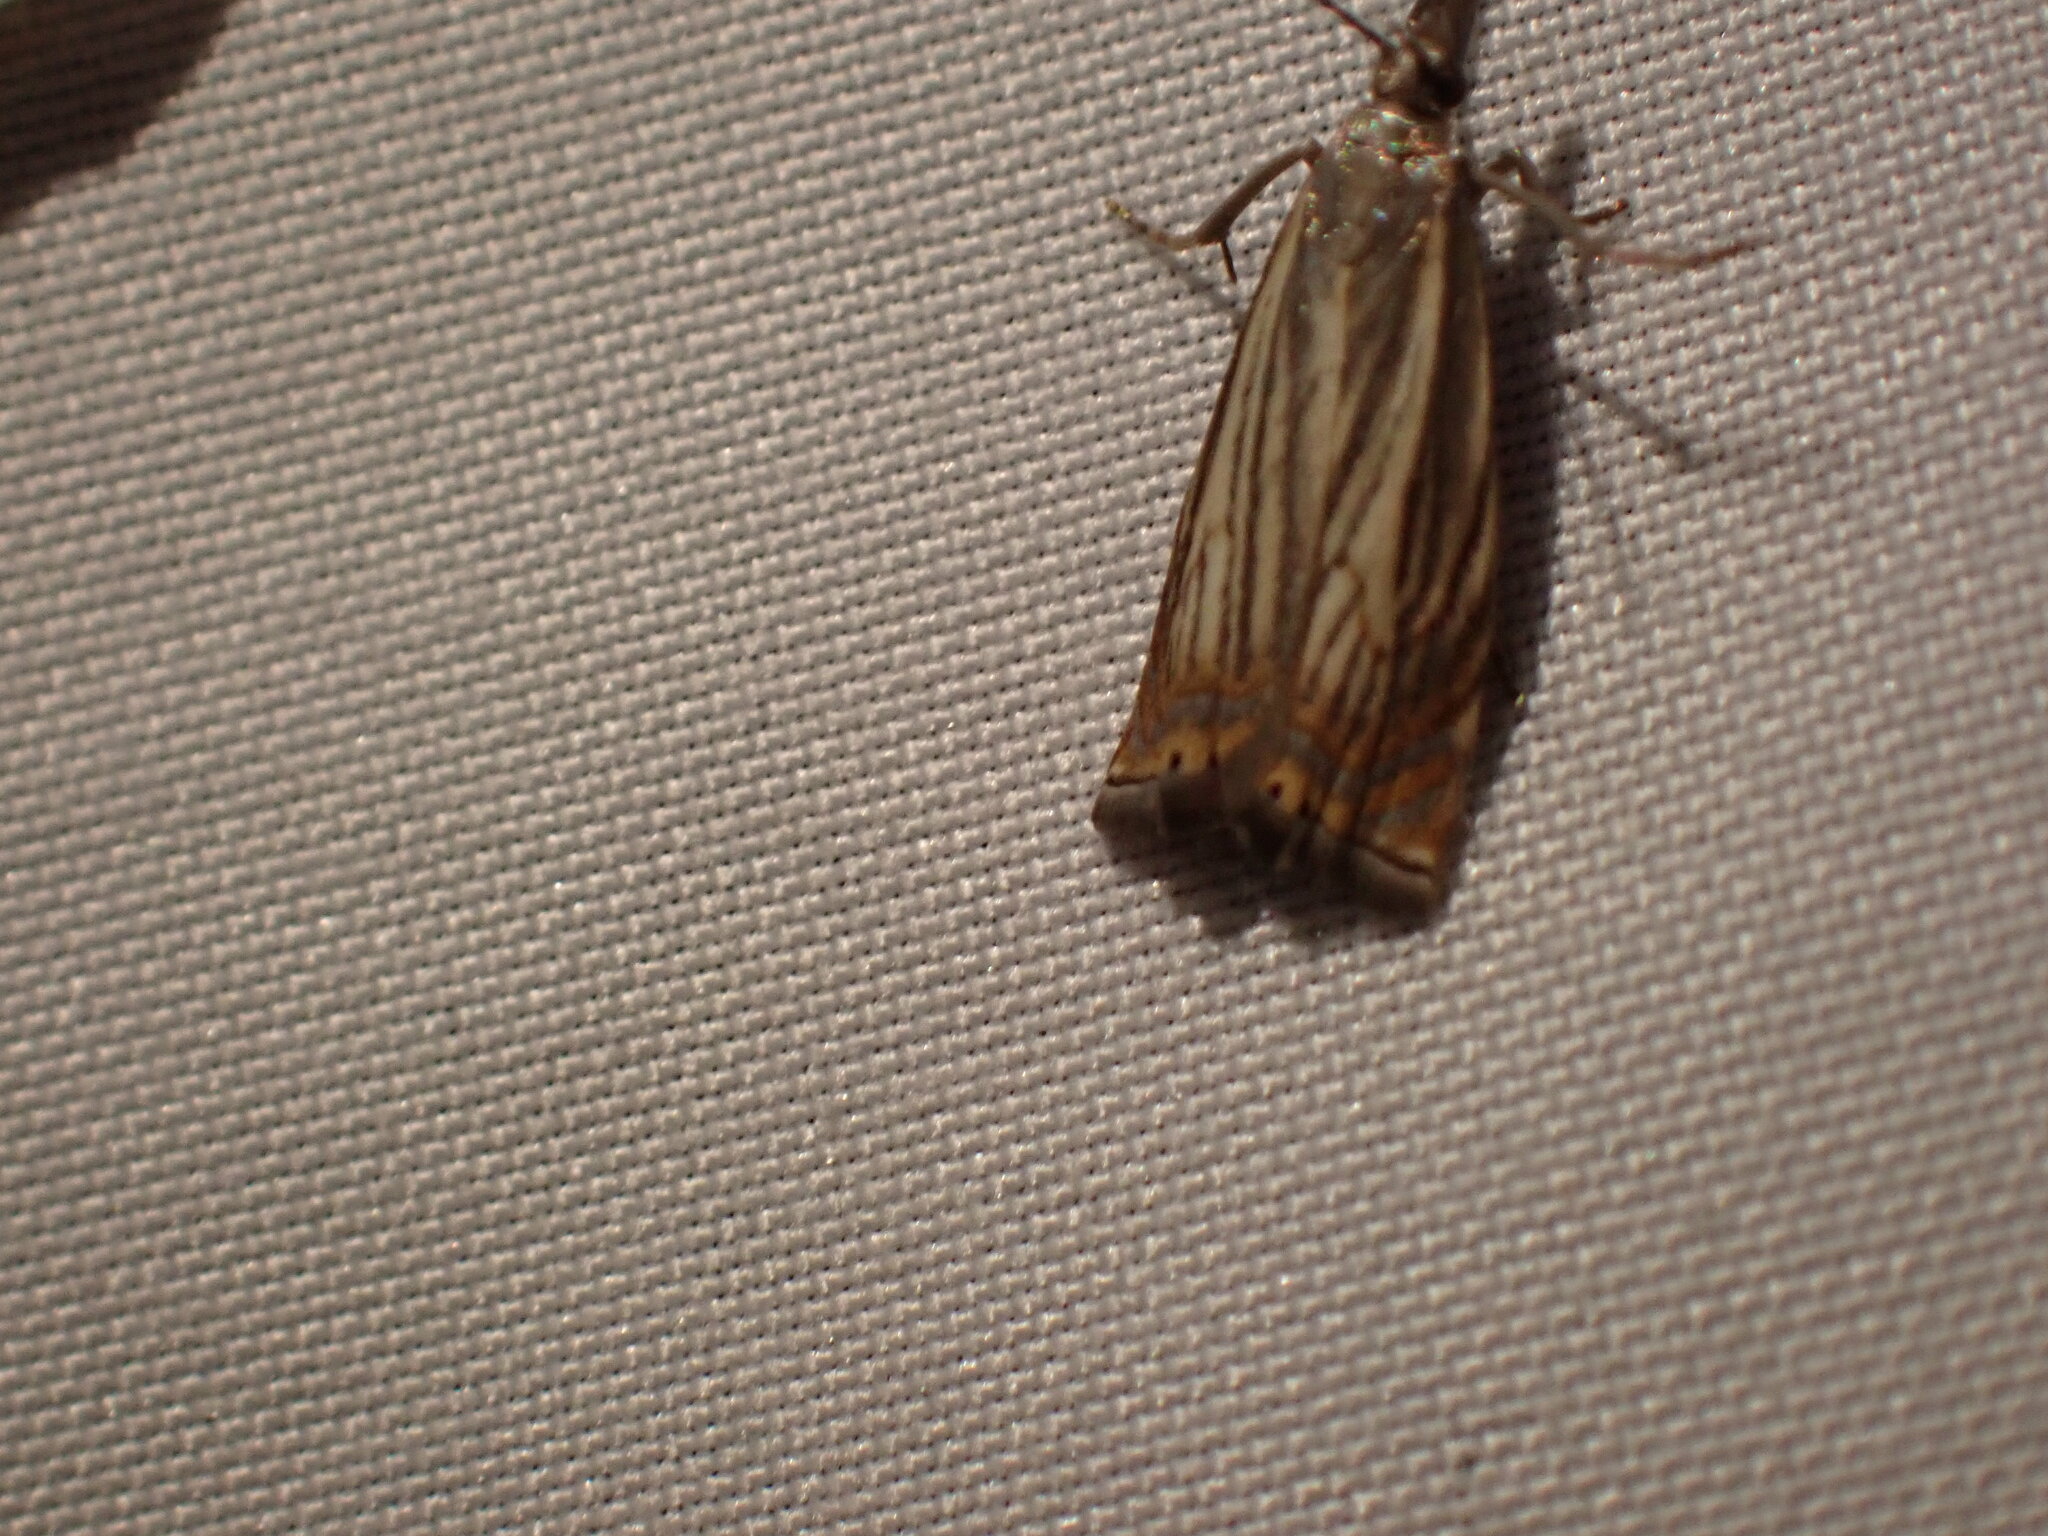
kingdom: Animalia
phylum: Arthropoda
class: Insecta
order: Lepidoptera
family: Crambidae
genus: Chrysoteuchia
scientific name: Chrysoteuchia topiarius
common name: Topiary grass-veneer
